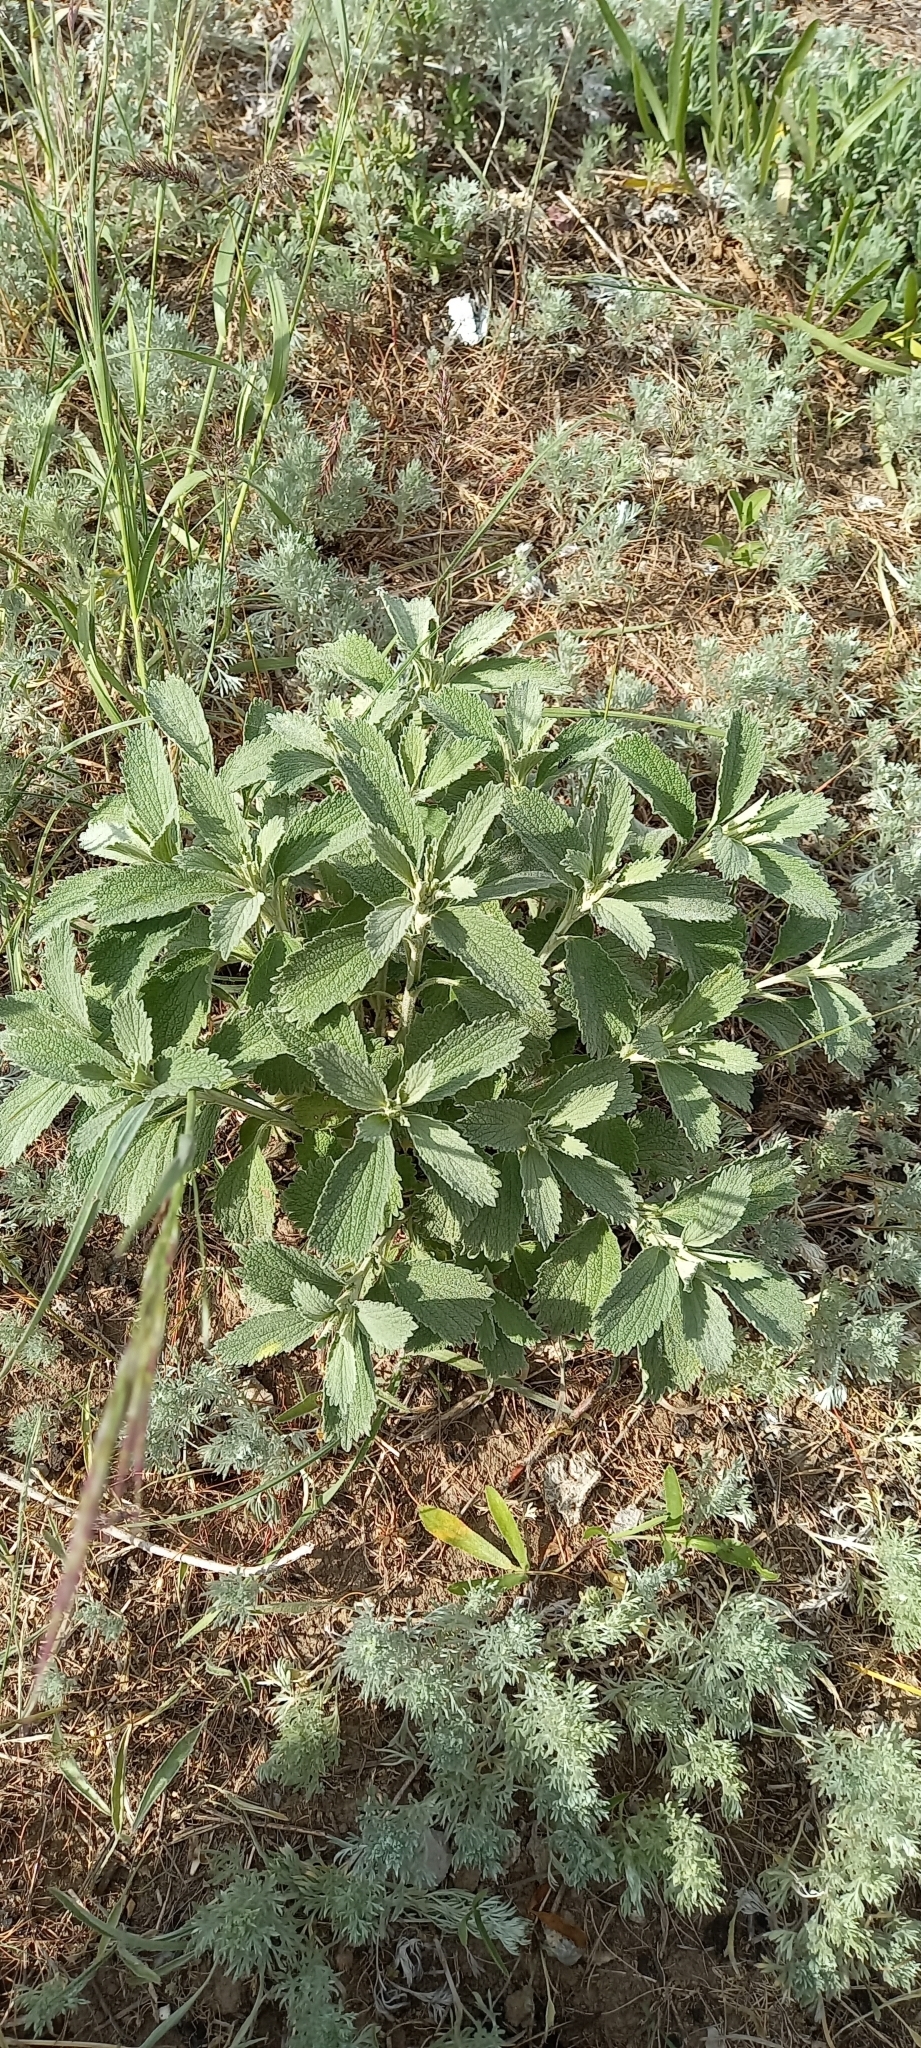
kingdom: Plantae
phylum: Tracheophyta
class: Magnoliopsida
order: Lamiales
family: Lamiaceae
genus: Marrubium
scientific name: Marrubium peregrinum
